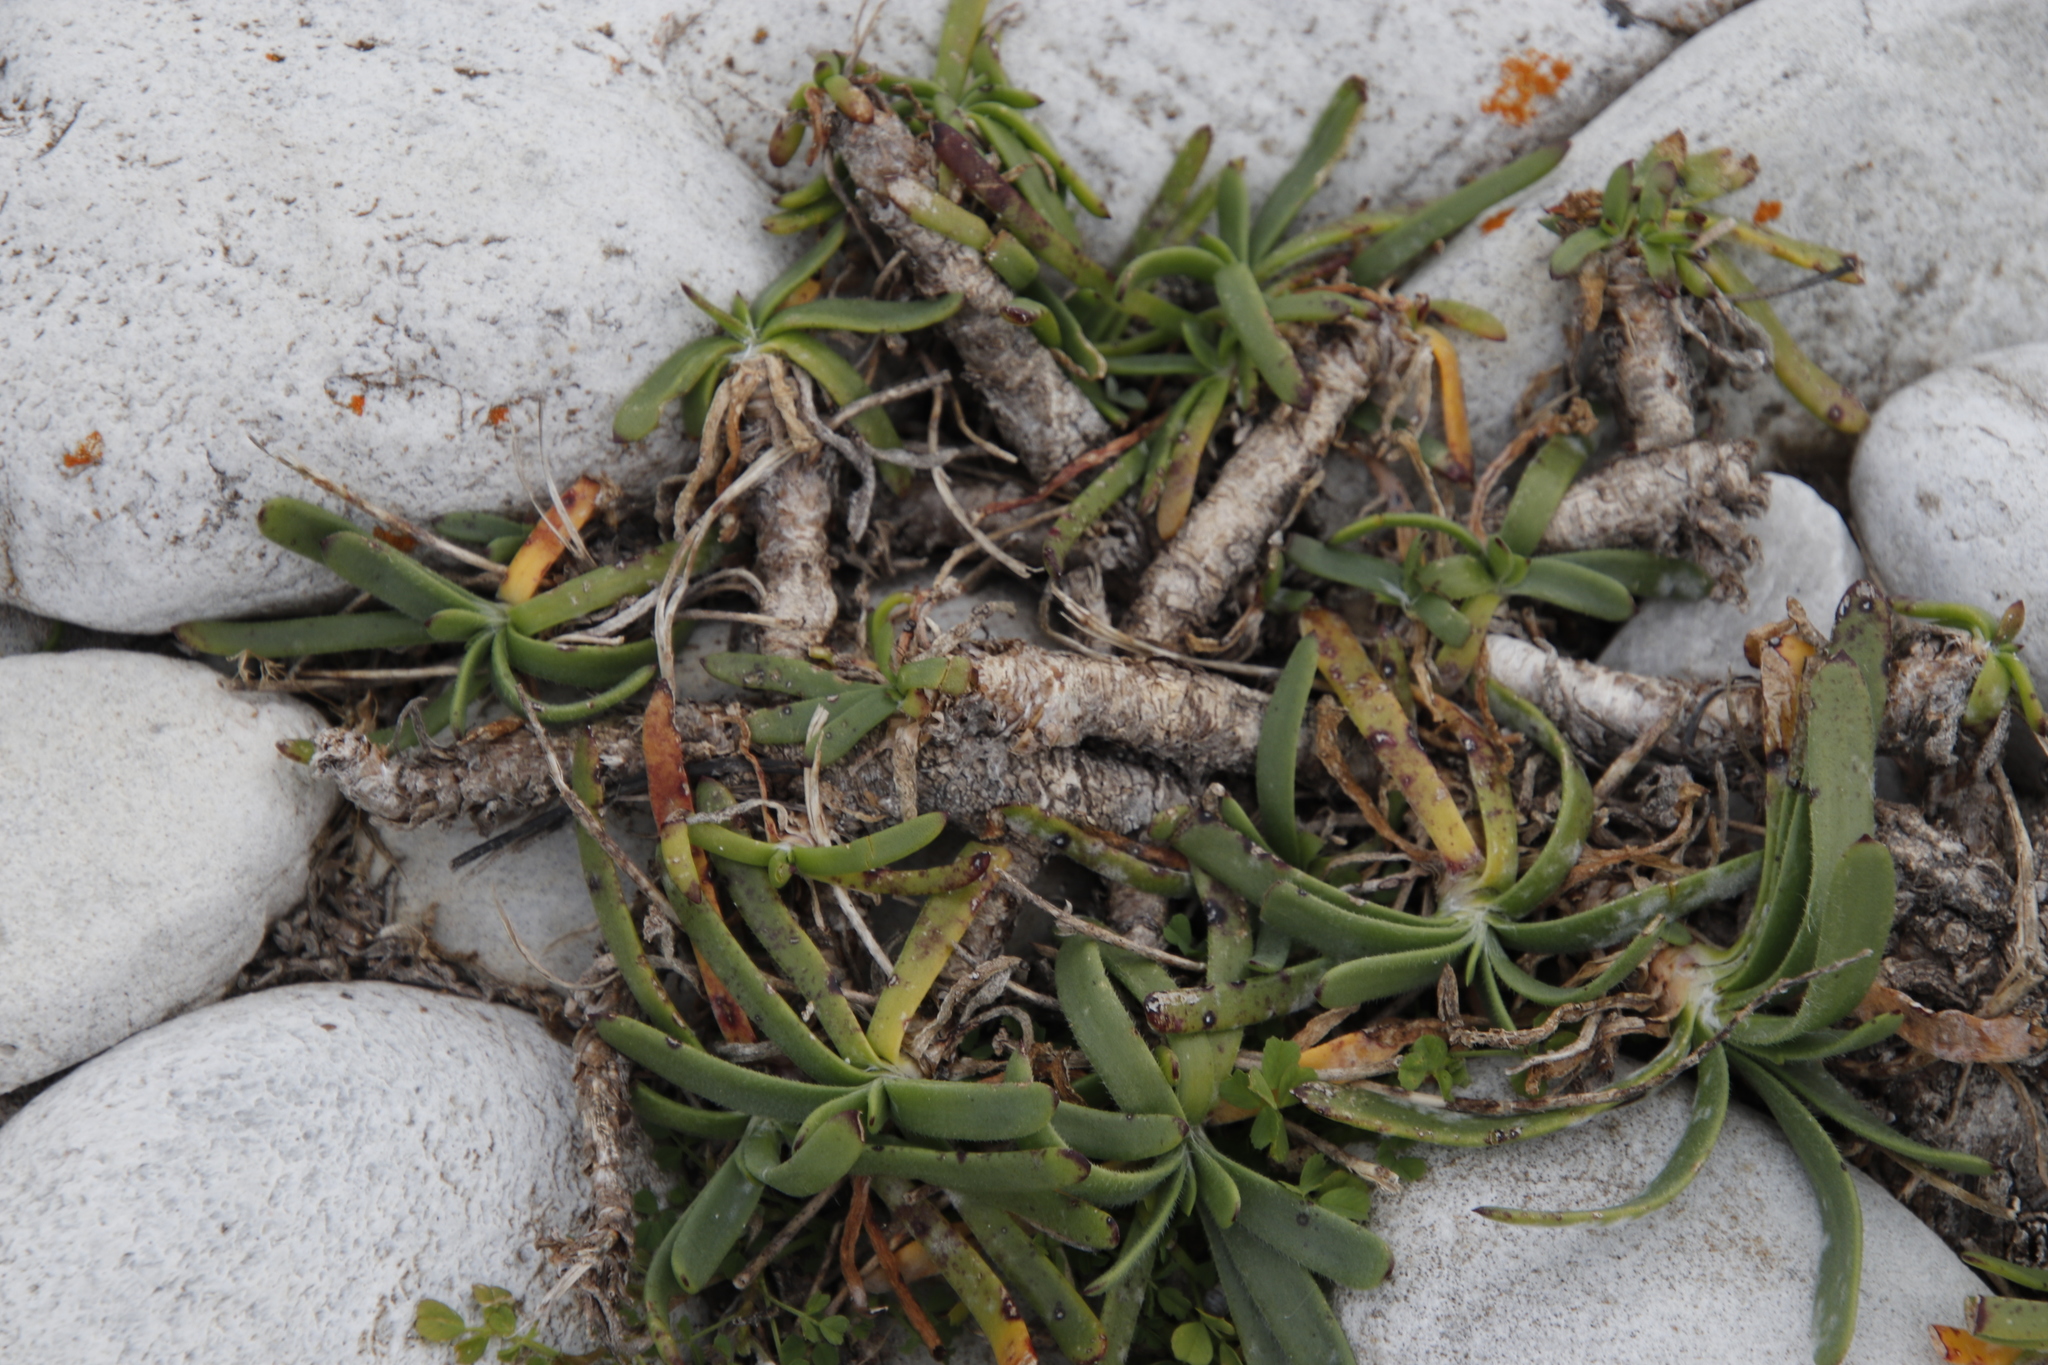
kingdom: Plantae
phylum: Tracheophyta
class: Magnoliopsida
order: Lamiales
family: Plantaginaceae
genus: Plantago
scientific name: Plantago carnosa
